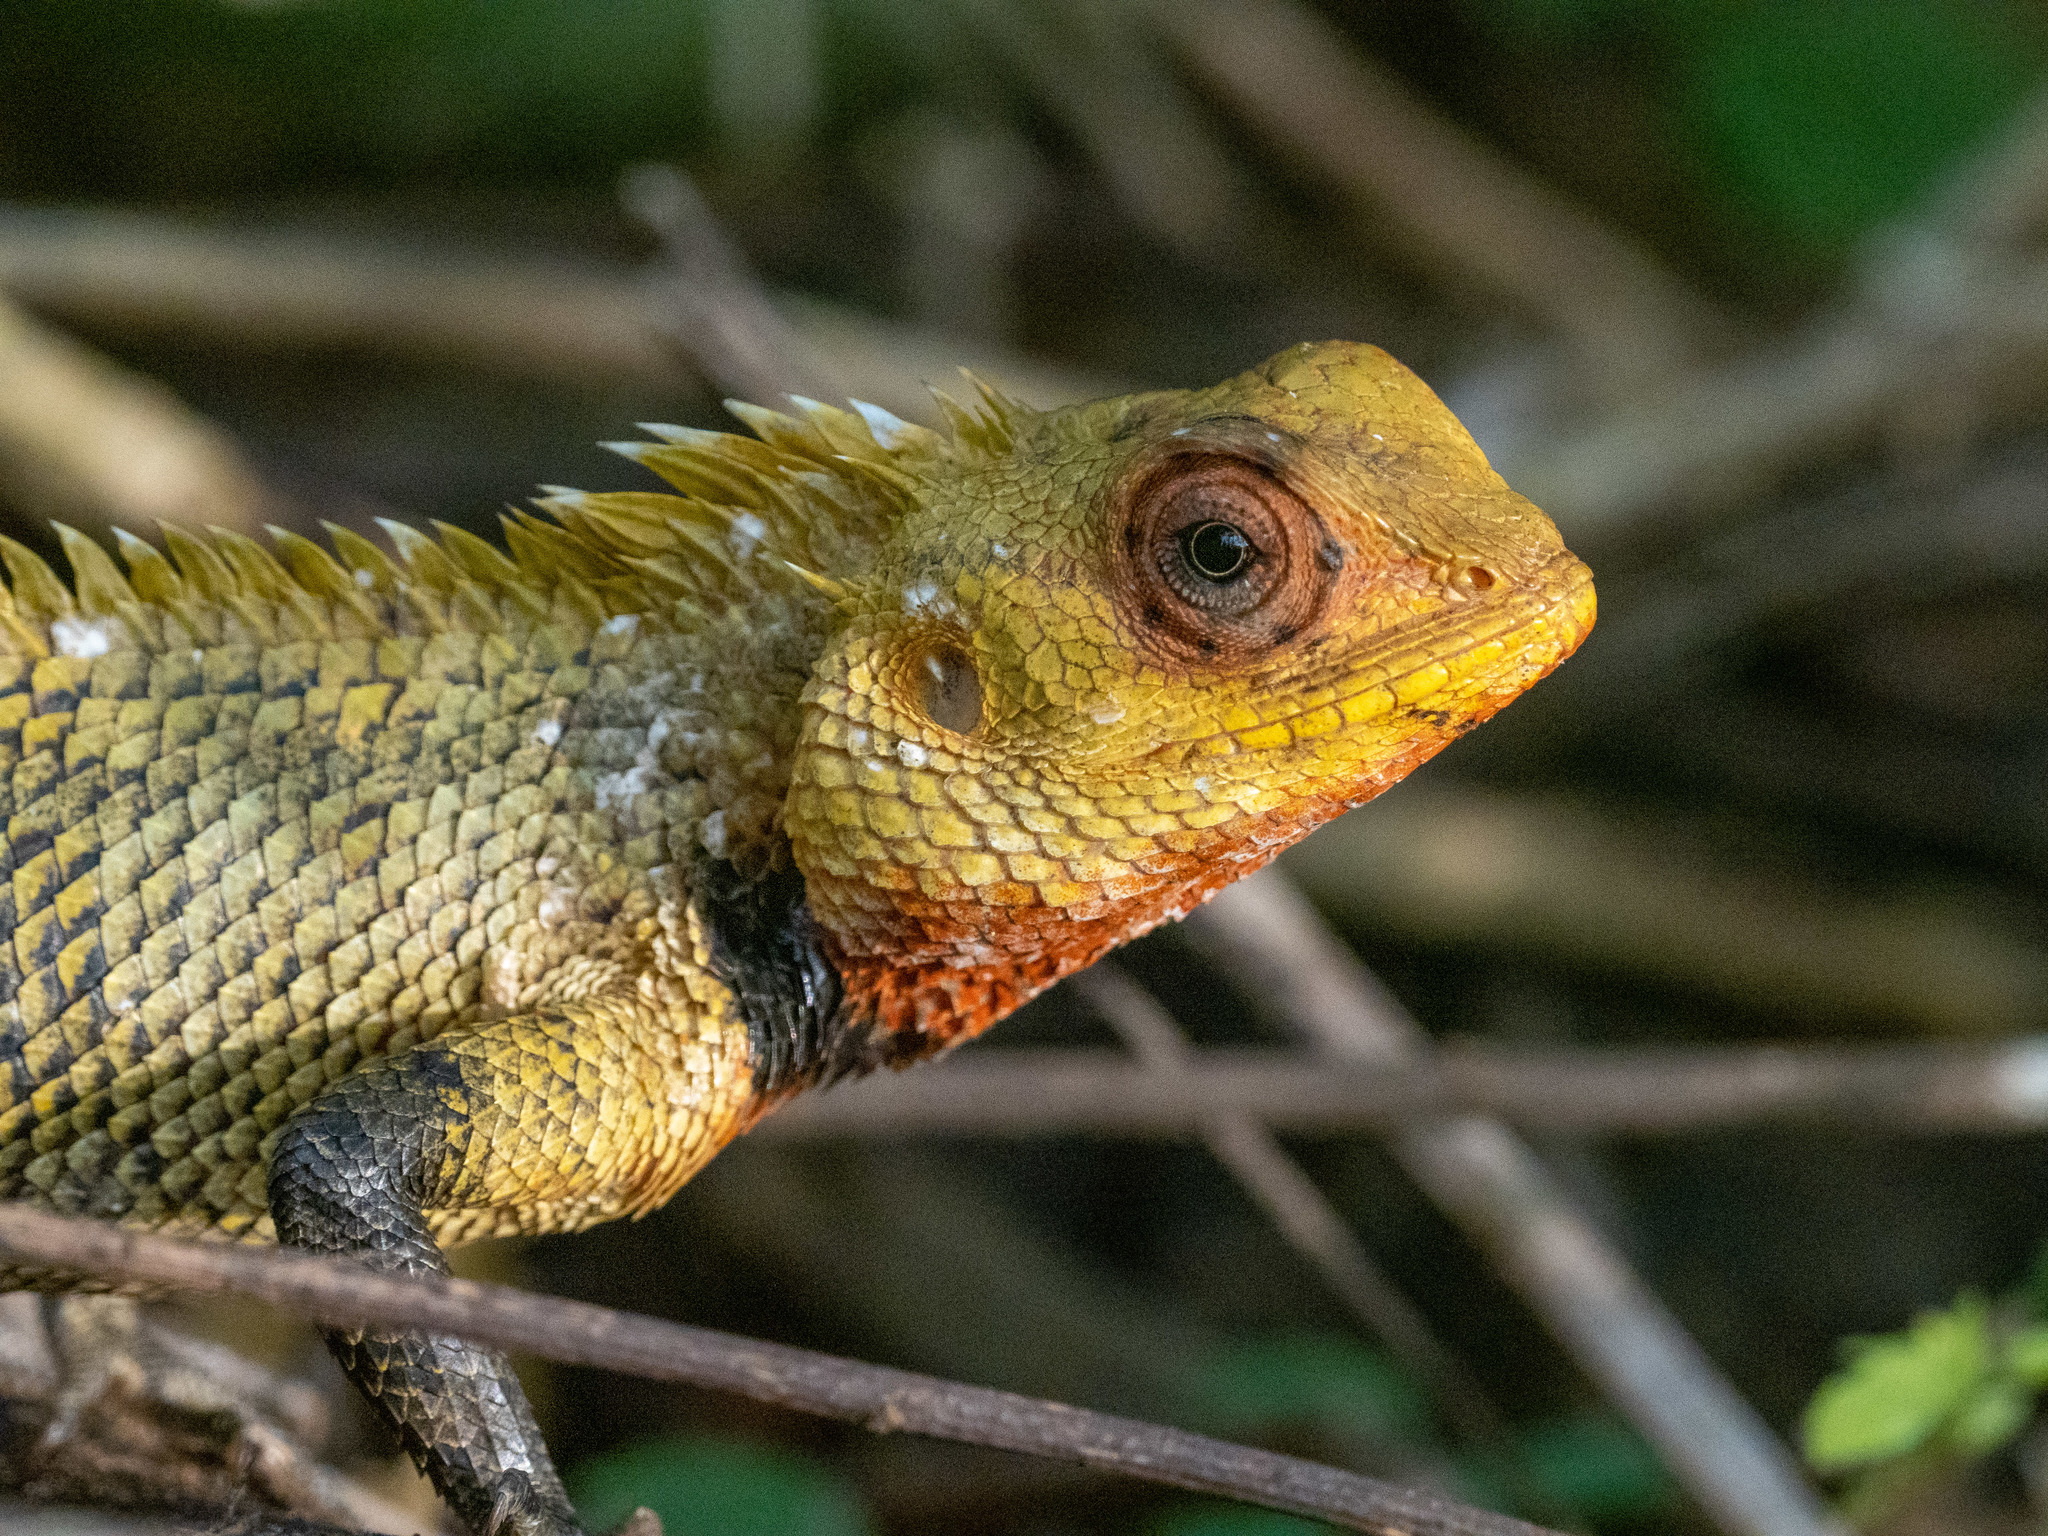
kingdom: Animalia
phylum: Chordata
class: Squamata
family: Agamidae
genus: Calotes
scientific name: Calotes versicolor
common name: Oriental garden lizard
